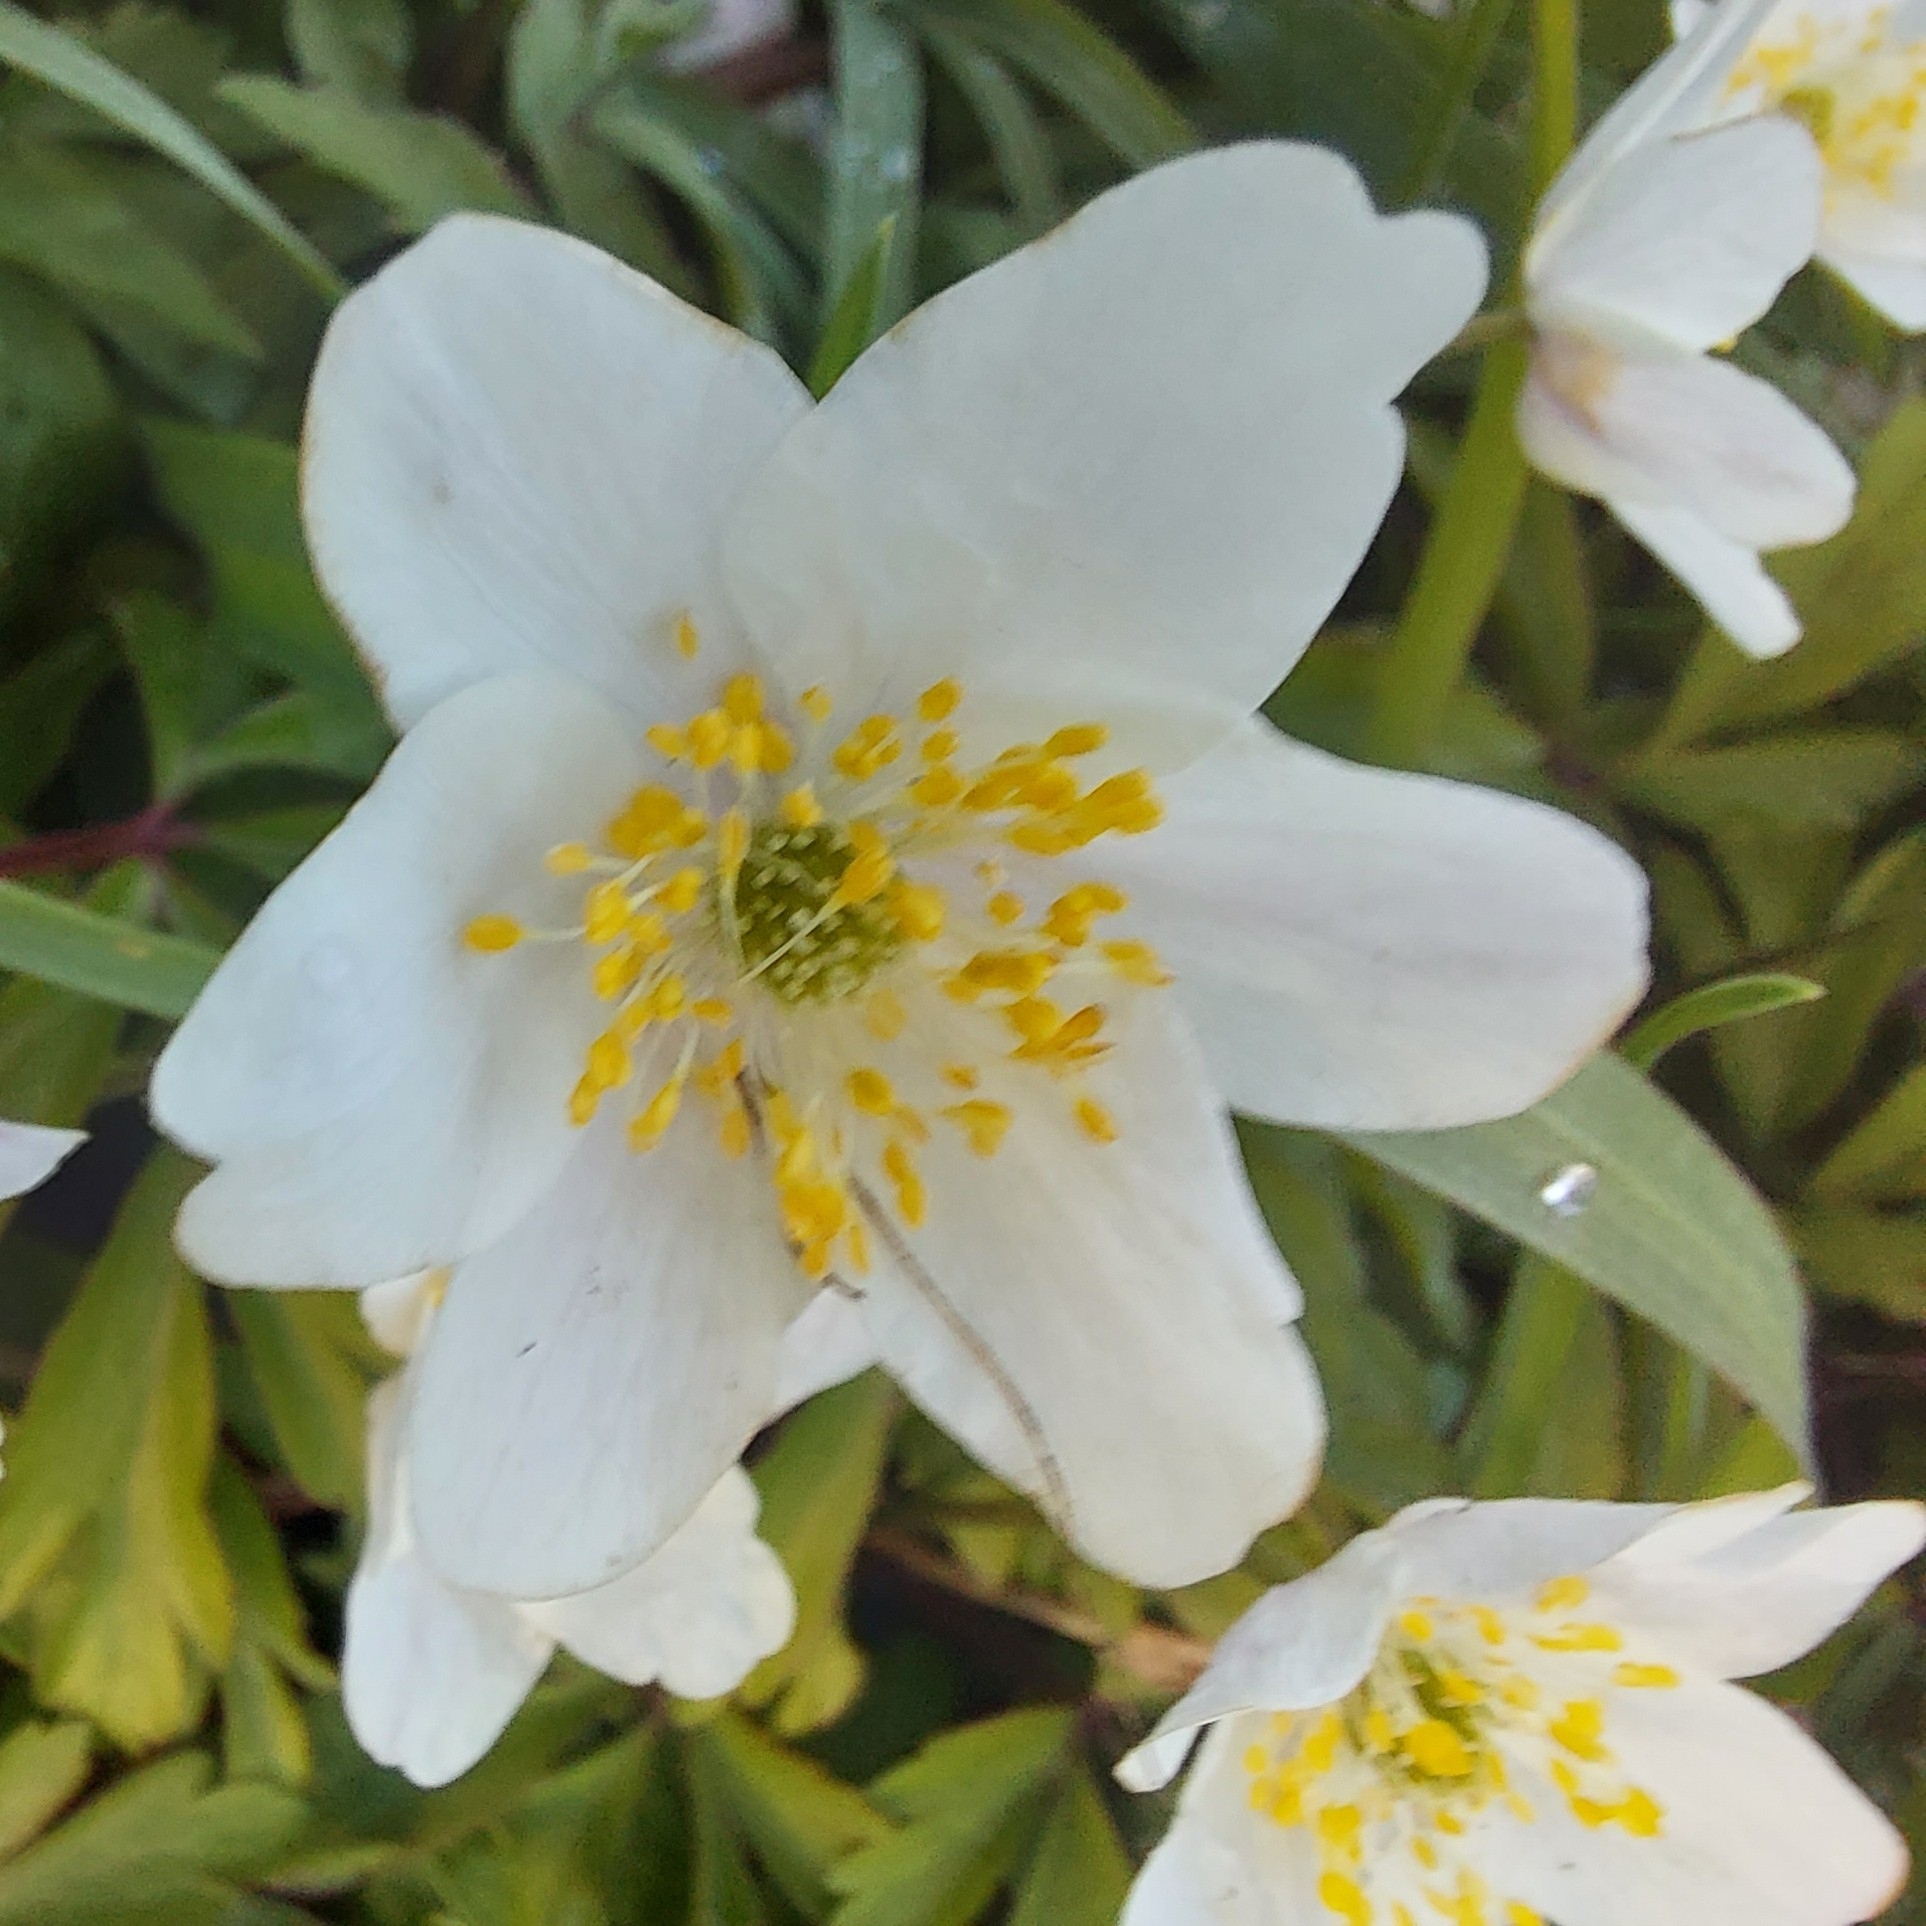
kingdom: Plantae
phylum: Tracheophyta
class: Magnoliopsida
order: Ranunculales
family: Ranunculaceae
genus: Anemone
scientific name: Anemone nemorosa
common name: Wood anemone
